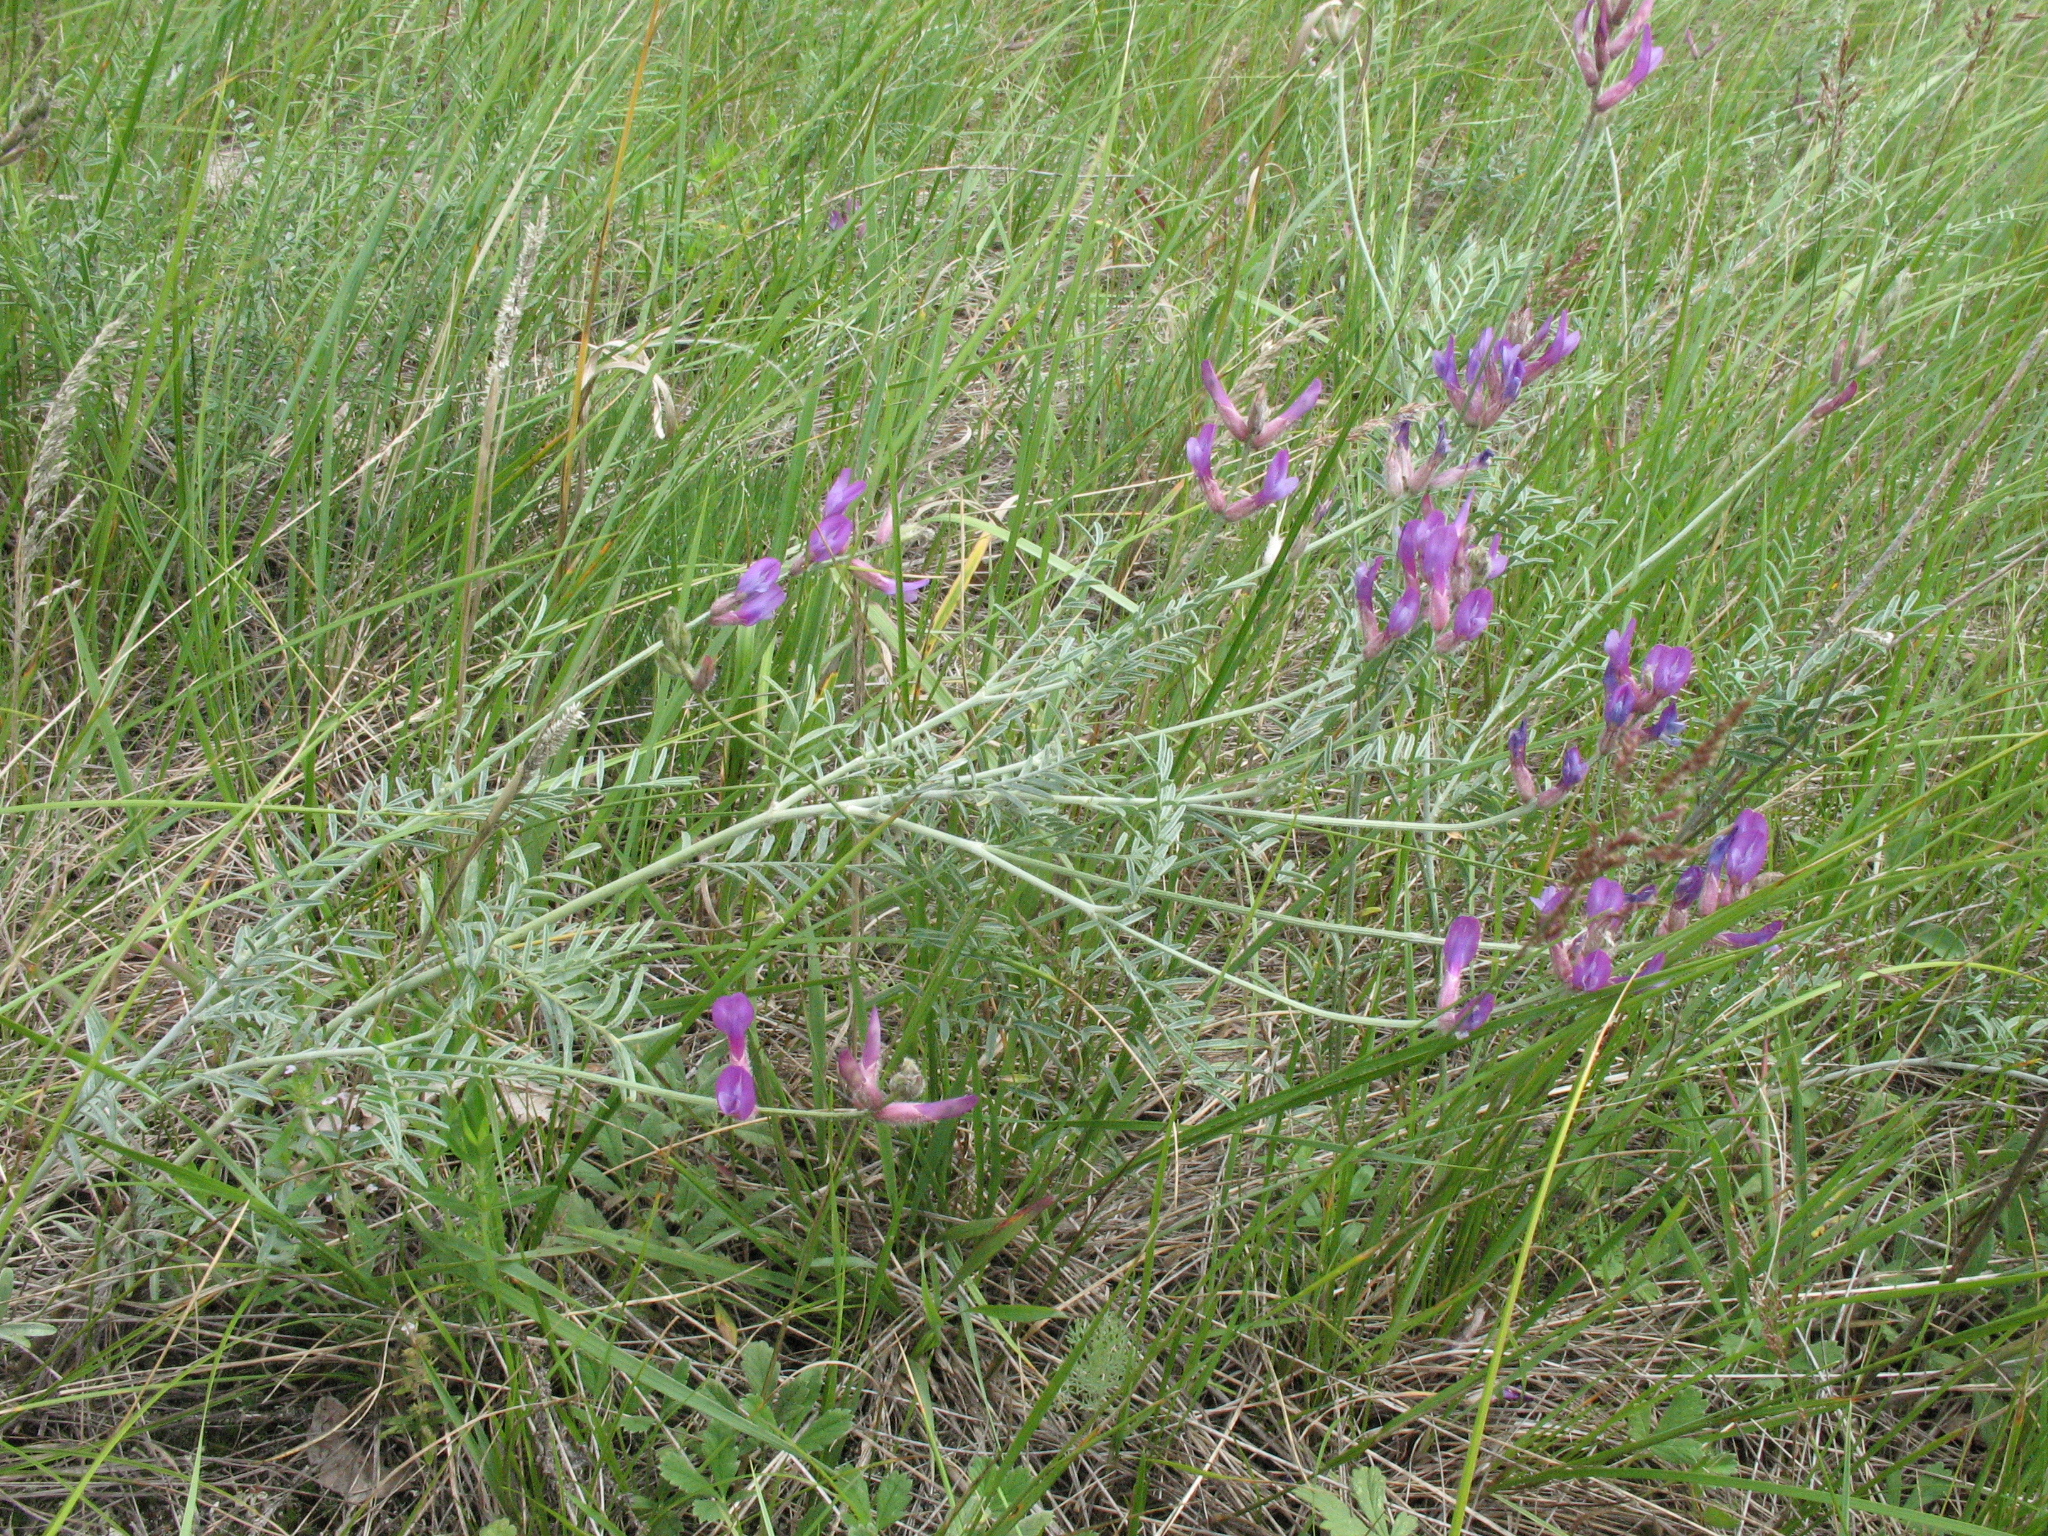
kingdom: Plantae
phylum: Tracheophyta
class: Magnoliopsida
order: Fabales
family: Fabaceae
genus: Astragalus
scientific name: Astragalus varius
